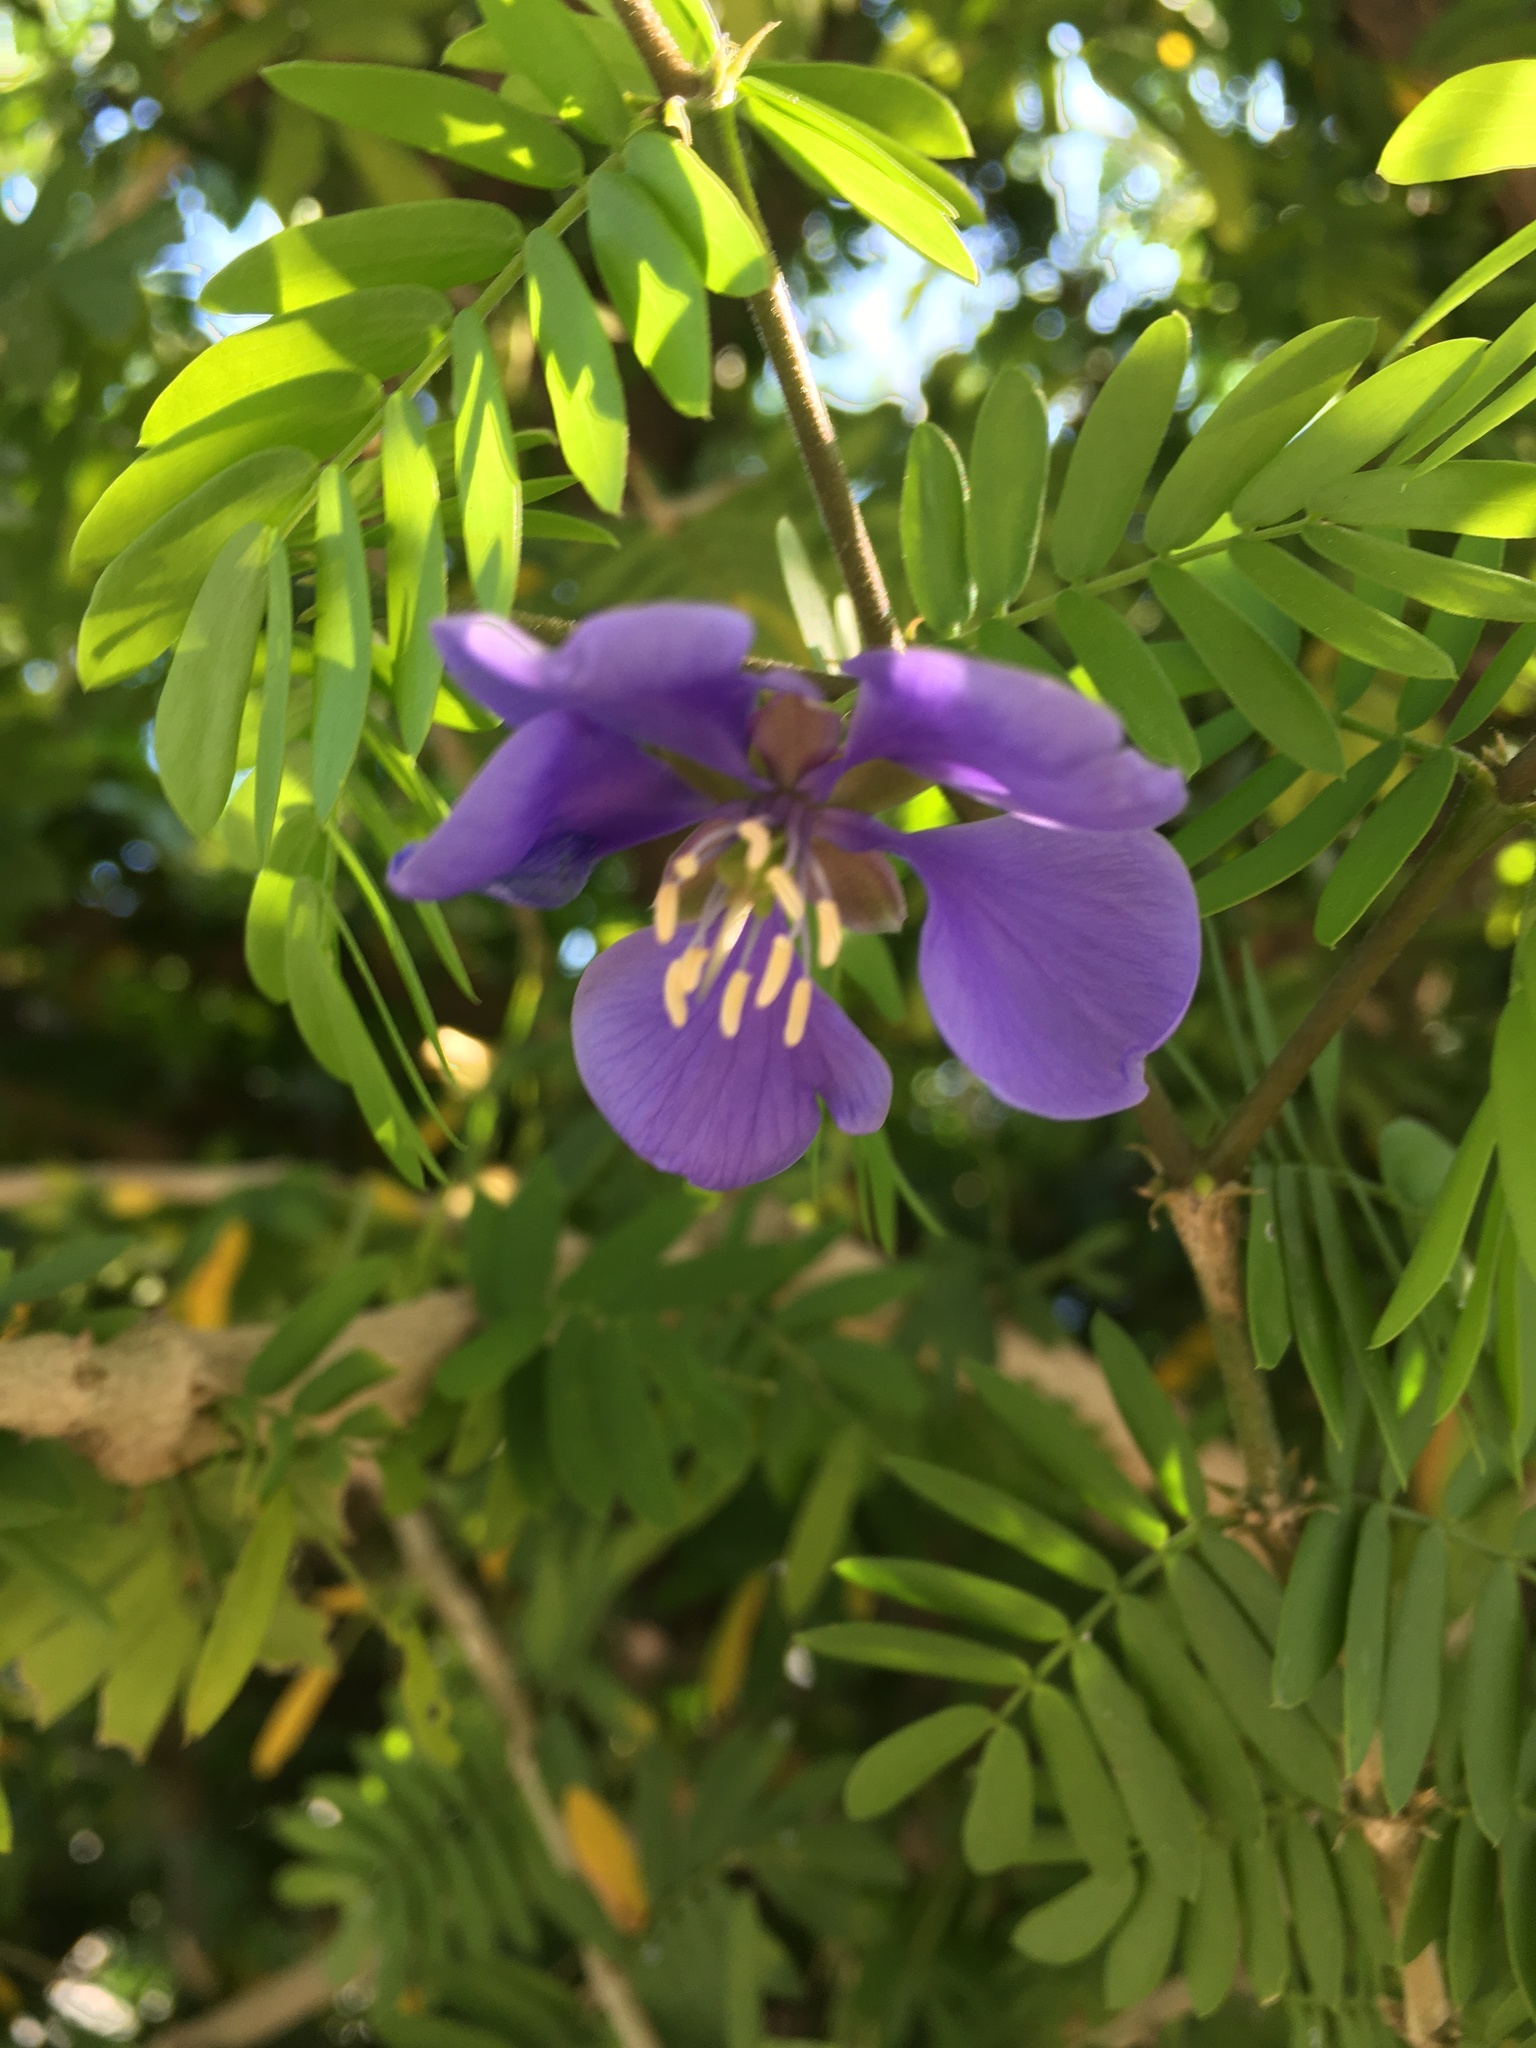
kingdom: Plantae
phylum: Tracheophyta
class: Magnoliopsida
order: Zygophyllales
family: Zygophyllaceae
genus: Guaiacum
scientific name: Guaiacum coulteri
